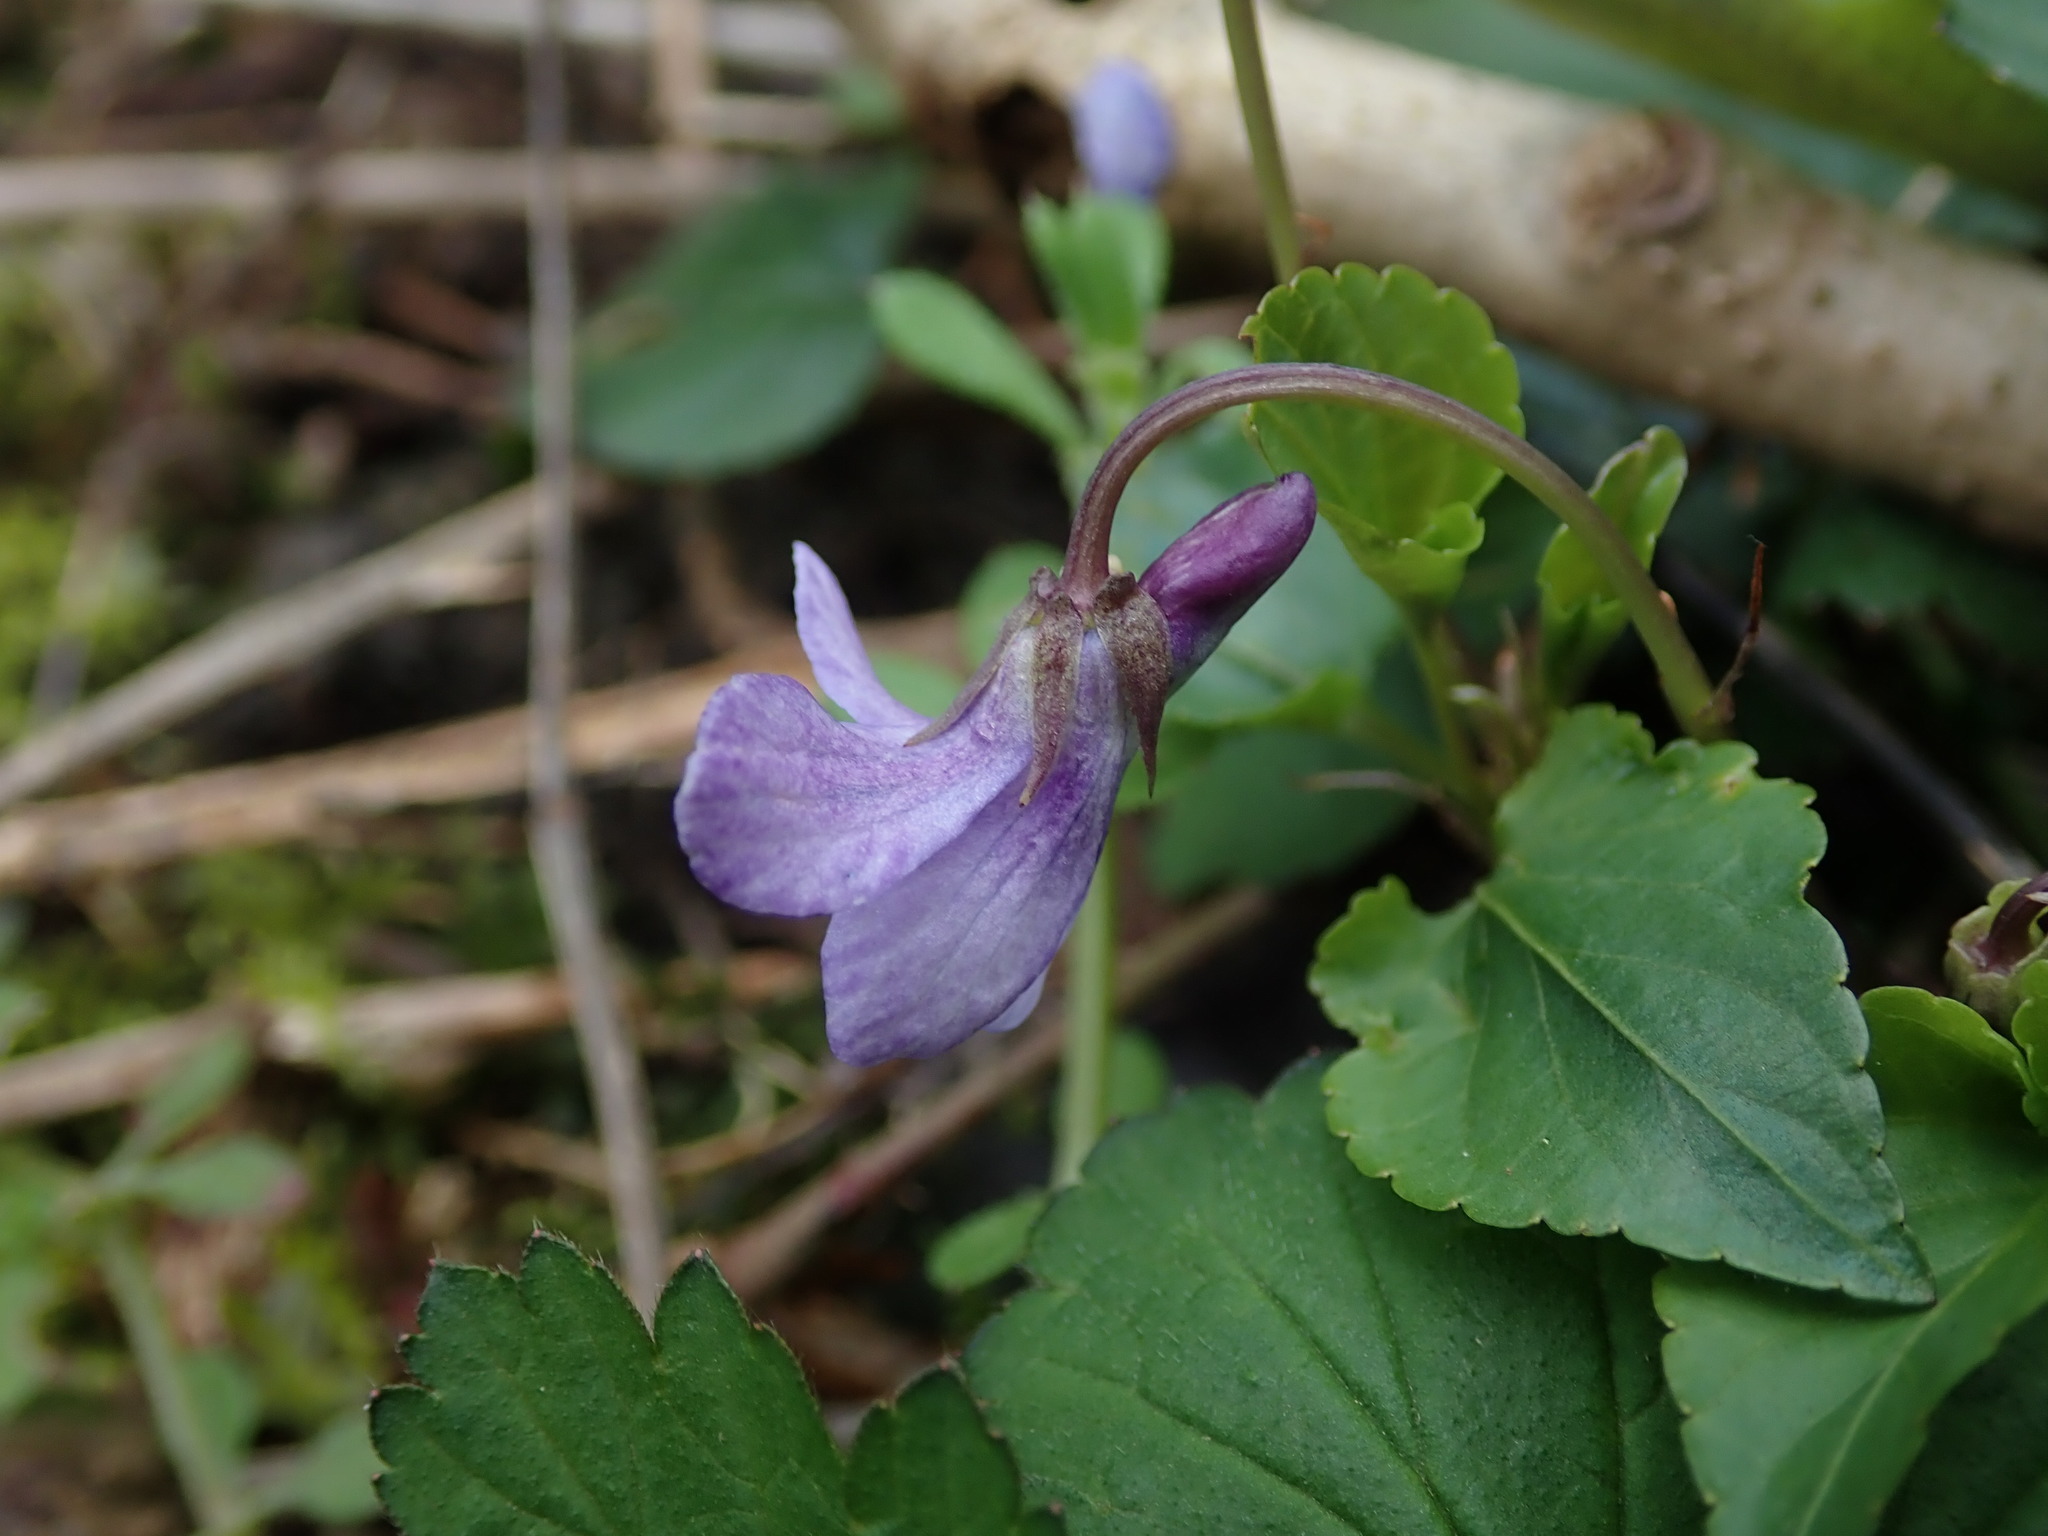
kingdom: Plantae
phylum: Tracheophyta
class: Magnoliopsida
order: Malpighiales
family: Violaceae
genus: Viola
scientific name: Viola reichenbachiana
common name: Early dog-violet
